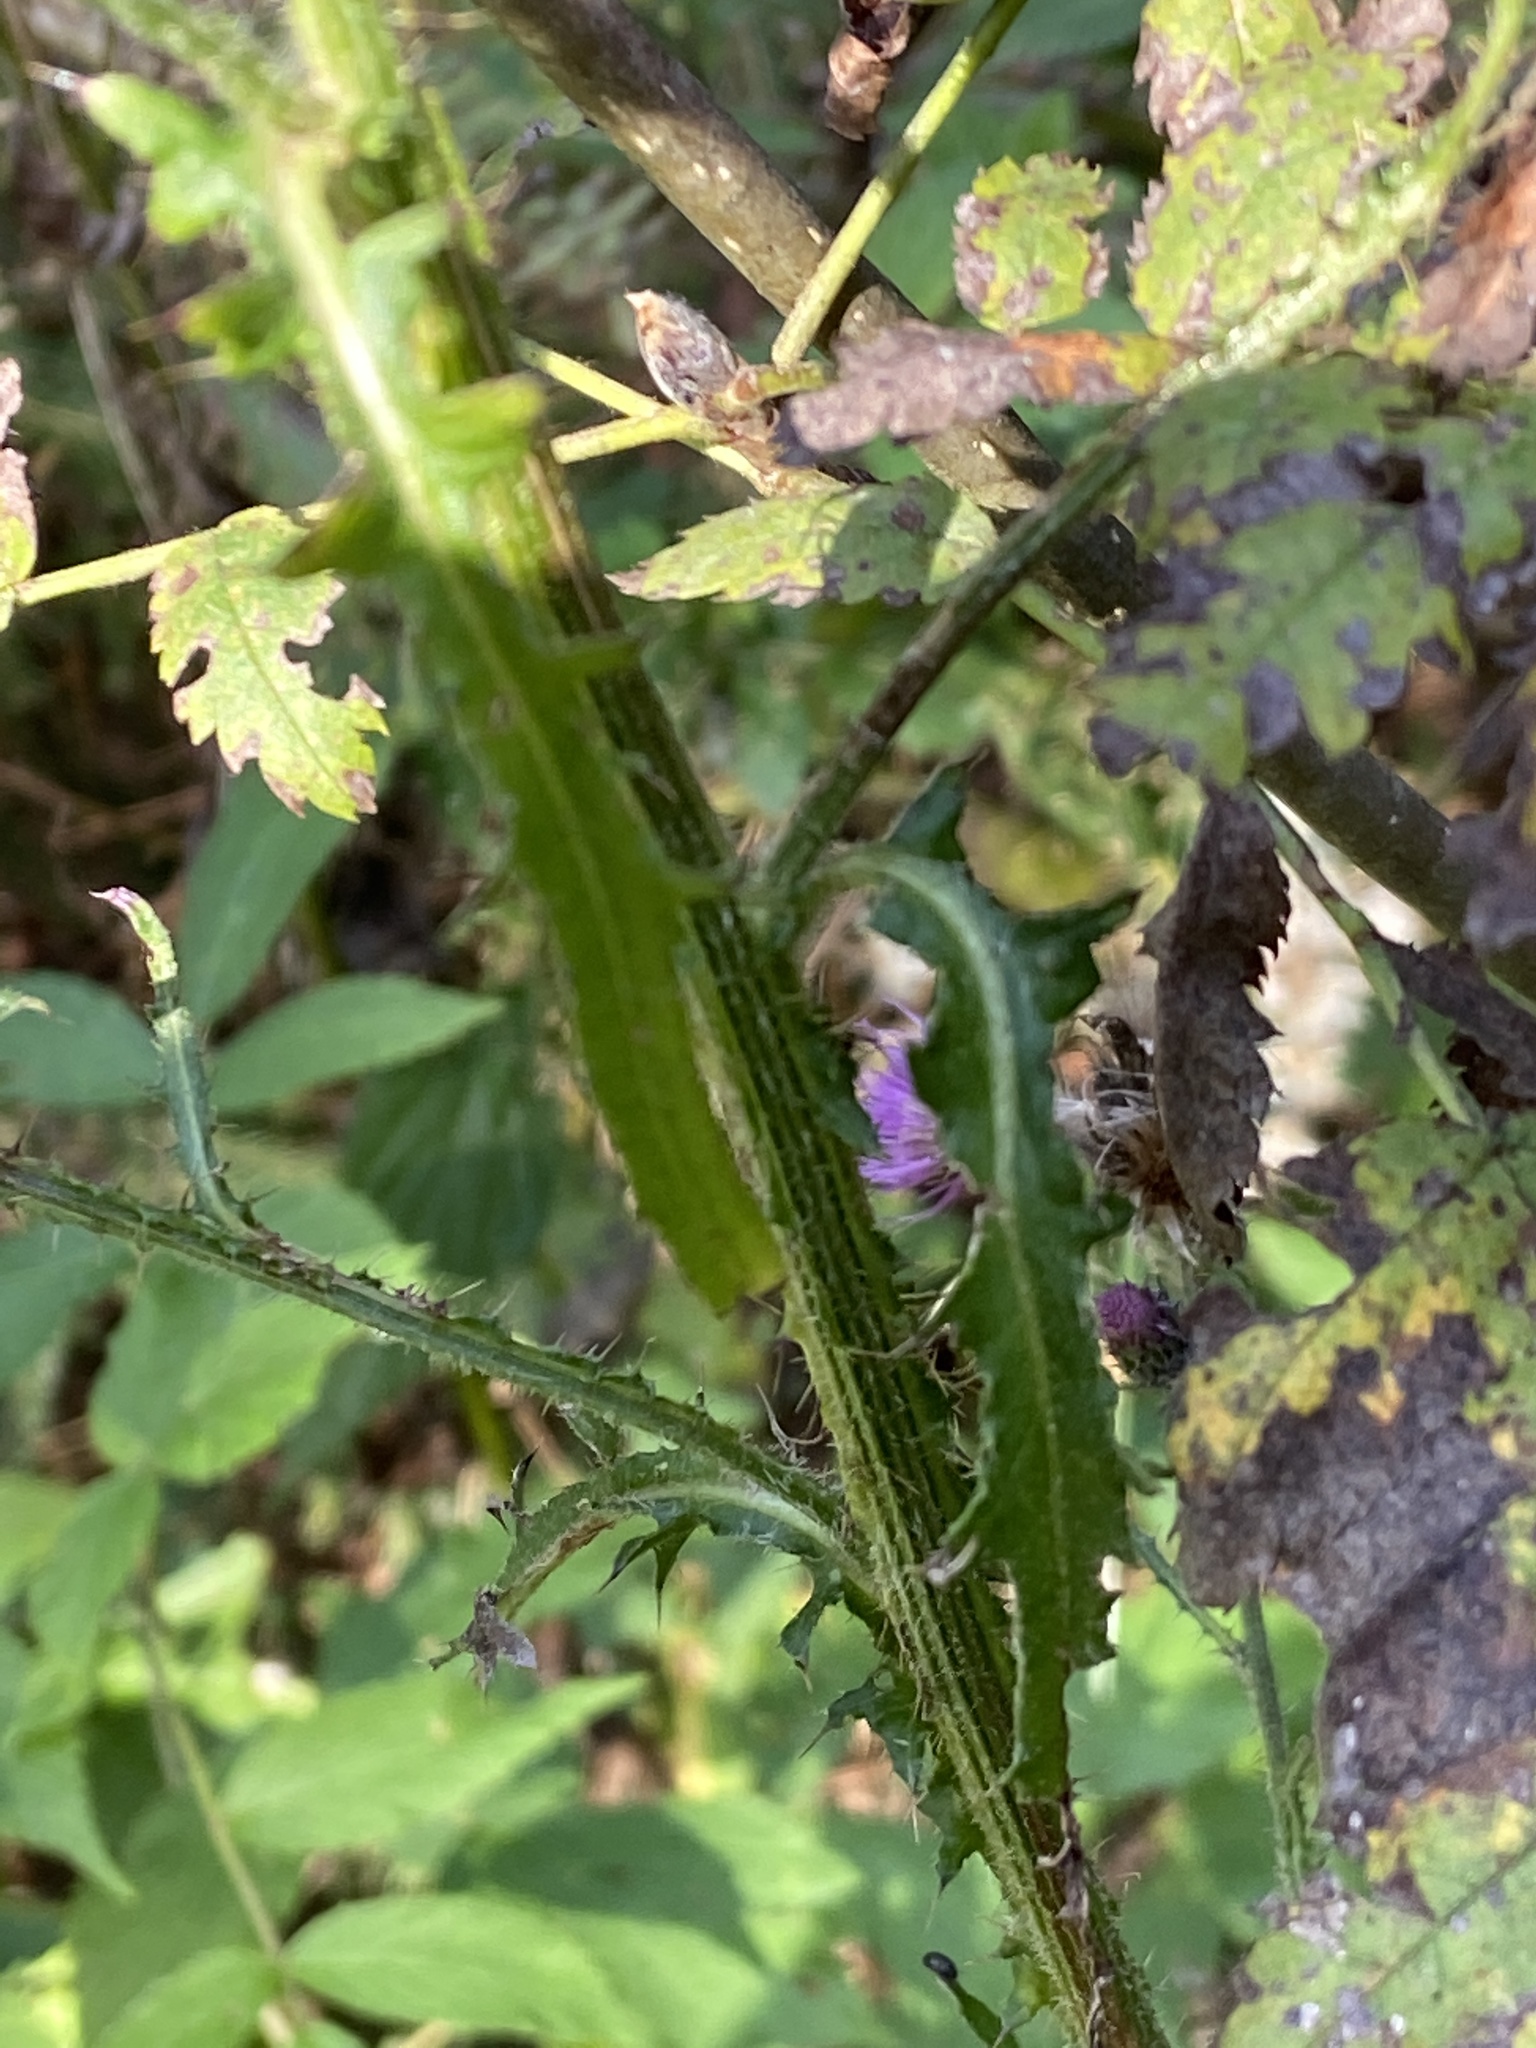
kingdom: Plantae
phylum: Tracheophyta
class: Magnoliopsida
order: Asterales
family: Asteraceae
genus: Cirsium
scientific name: Cirsium palustre
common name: Marsh thistle
